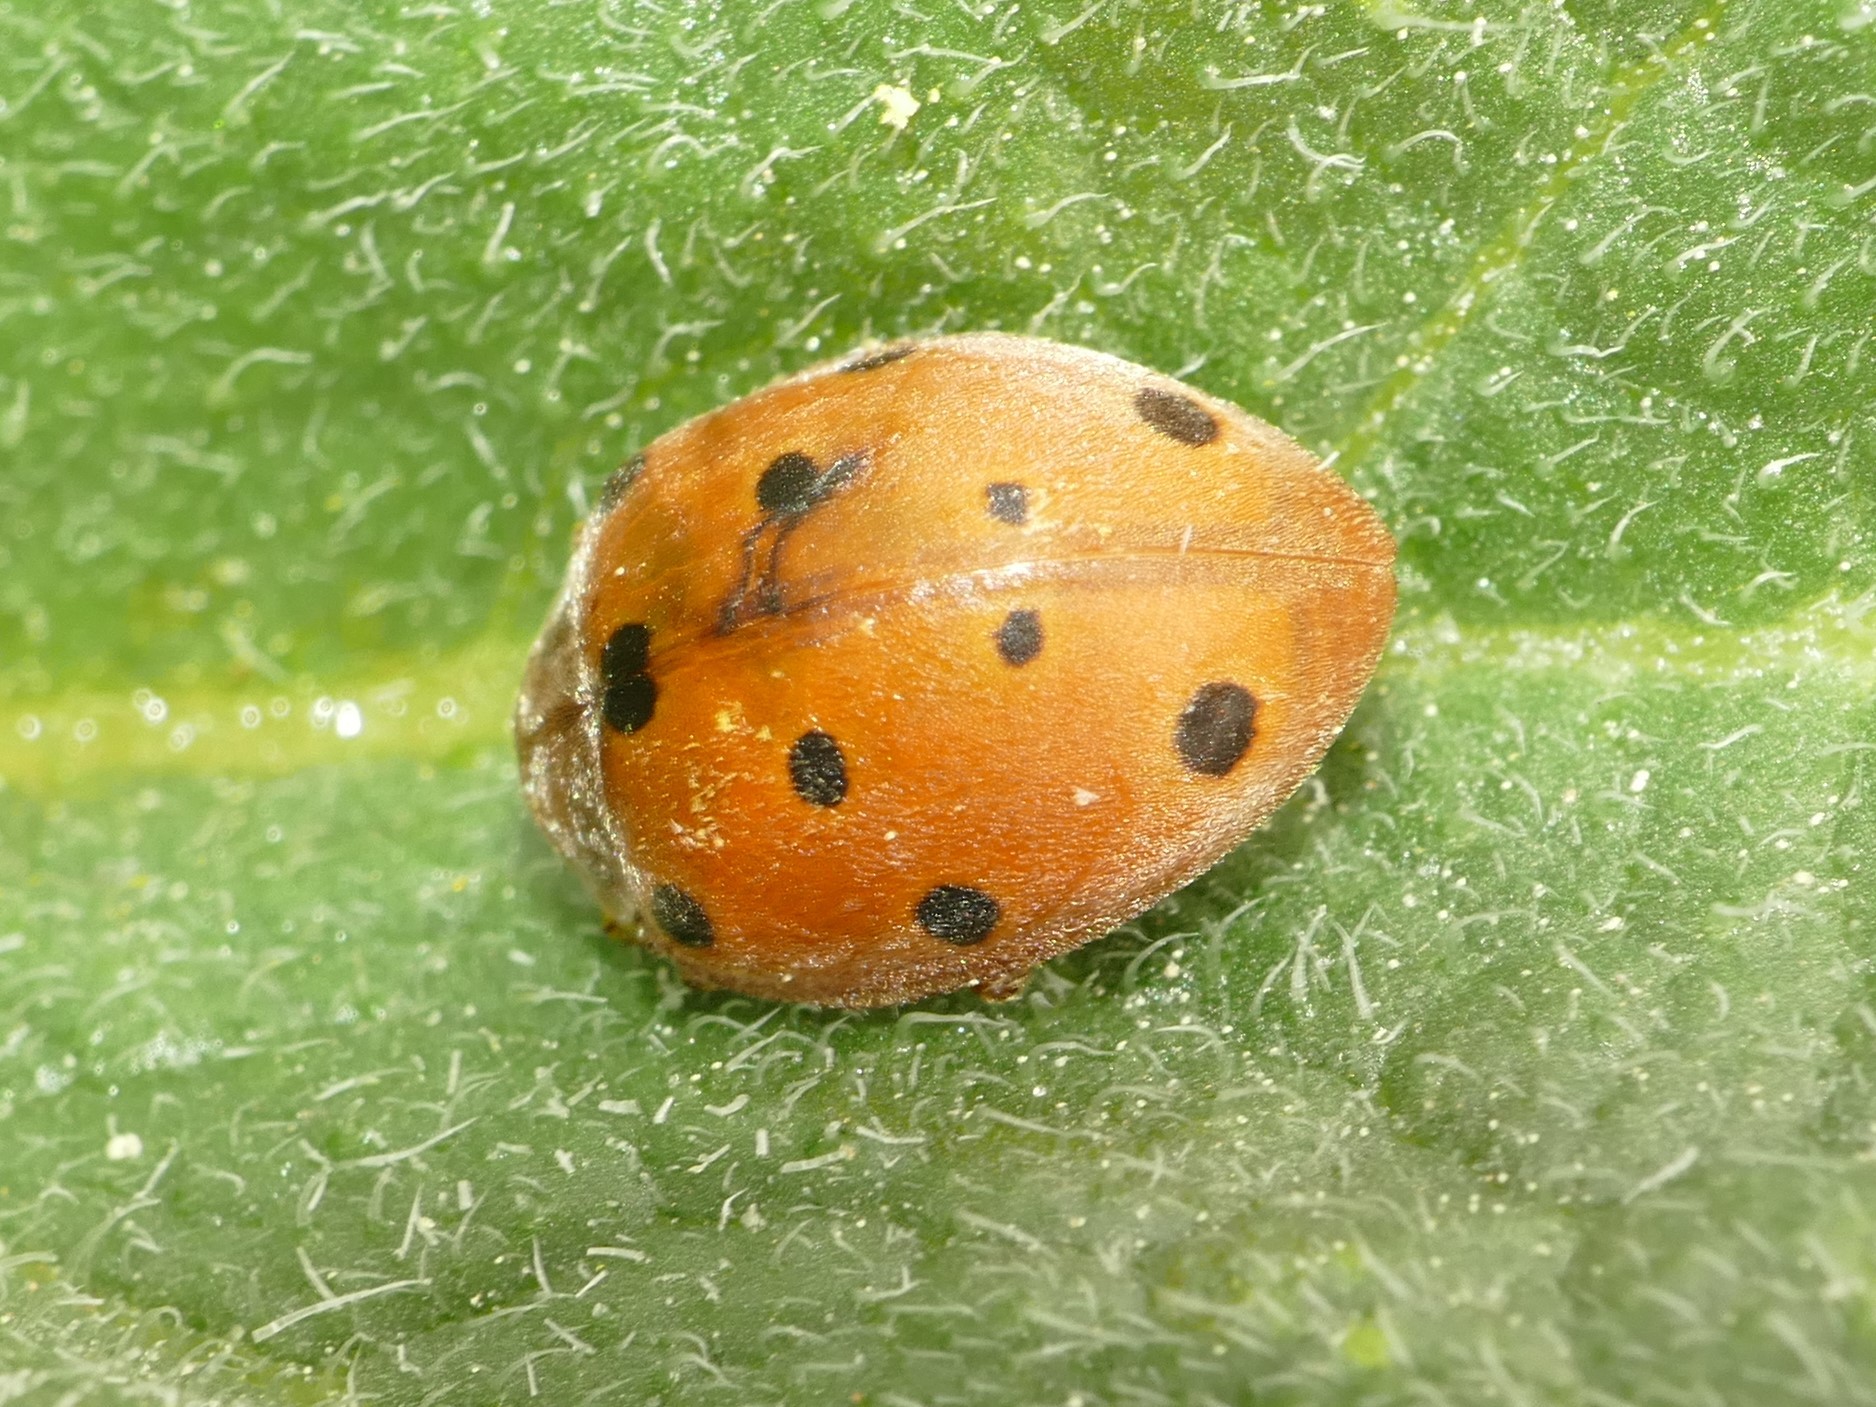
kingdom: Animalia
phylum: Arthropoda
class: Insecta
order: Coleoptera
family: Coccinellidae
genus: Henosepilachna
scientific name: Henosepilachna
